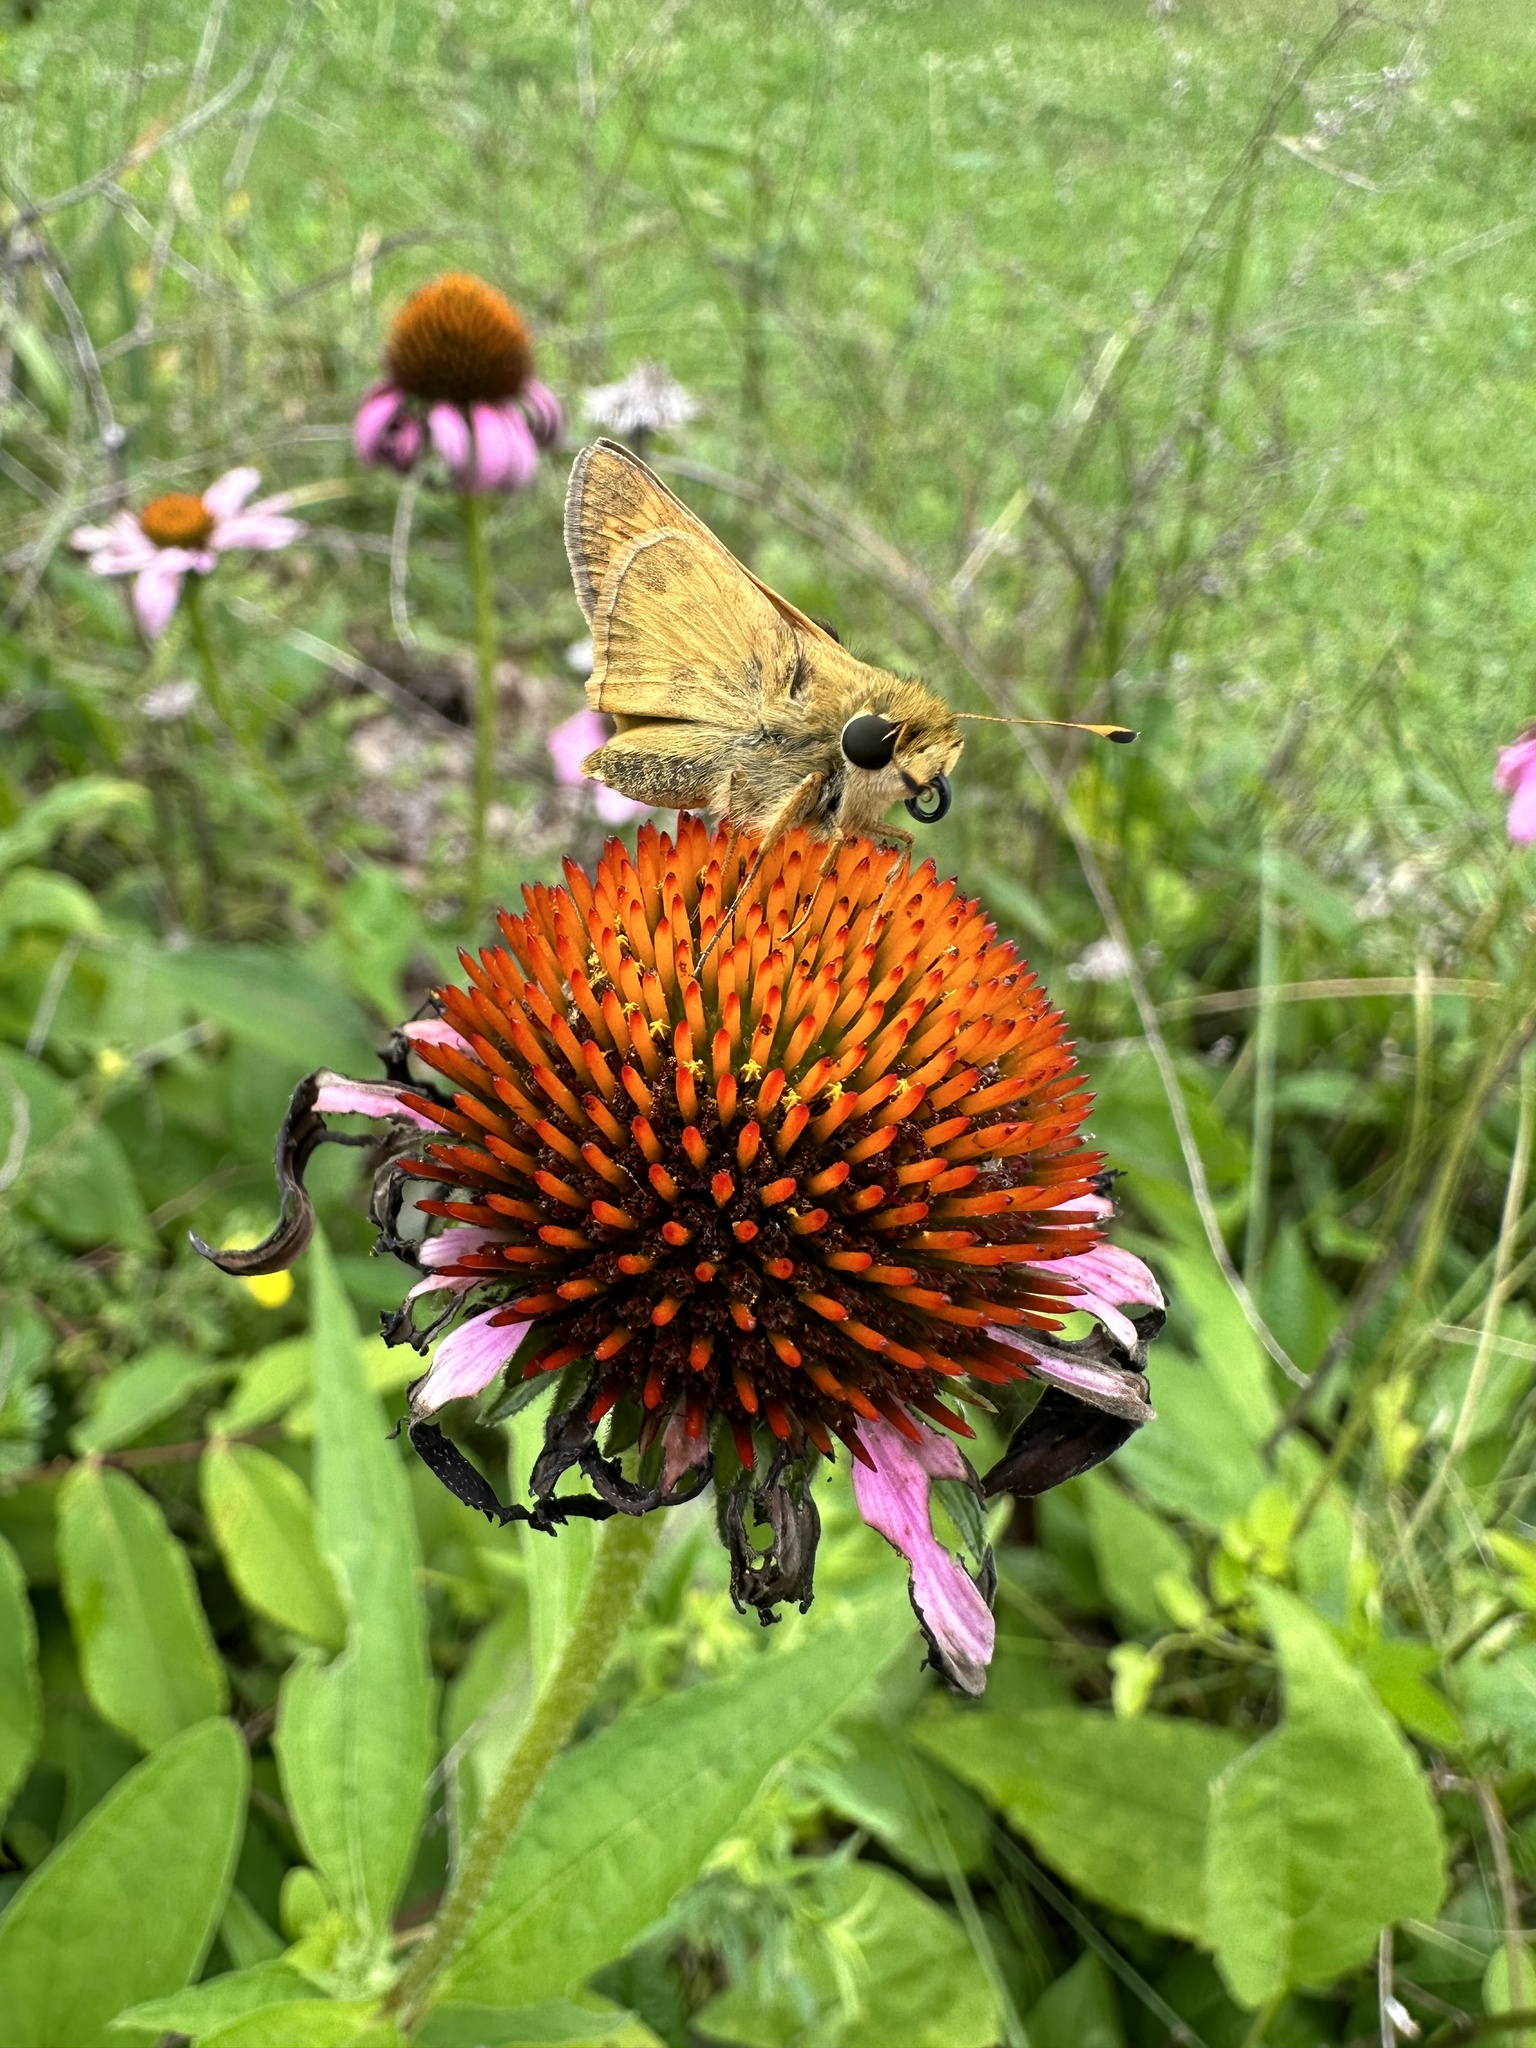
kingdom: Animalia
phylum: Arthropoda
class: Insecta
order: Lepidoptera
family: Hesperiidae
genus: Atalopedes
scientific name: Atalopedes
